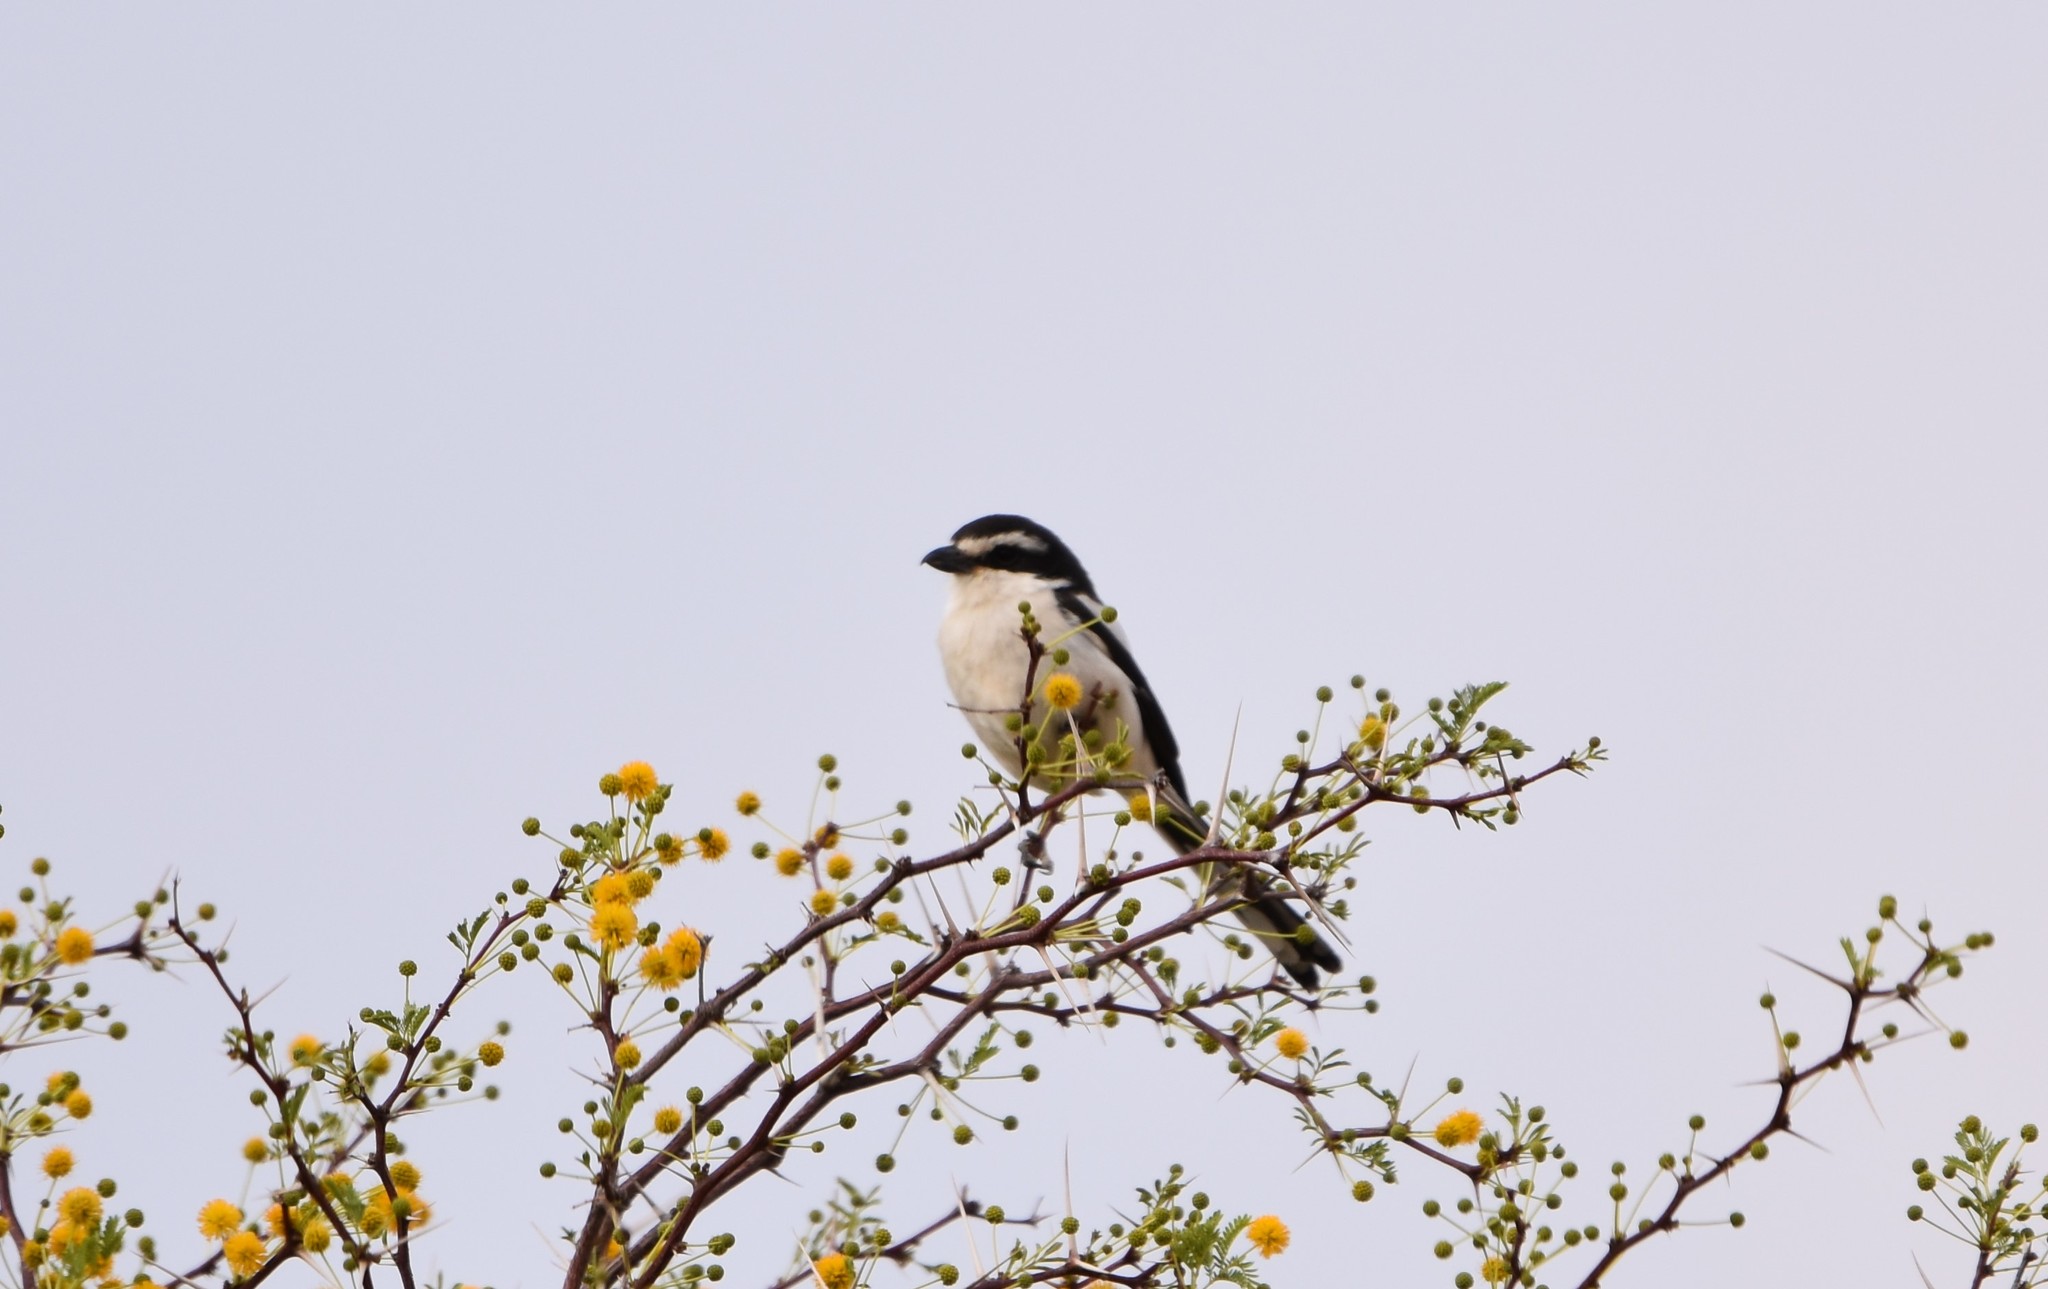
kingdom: Animalia
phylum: Chordata
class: Aves
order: Passeriformes
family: Laniidae
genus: Lanius
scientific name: Lanius collaris
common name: Southern fiscal
